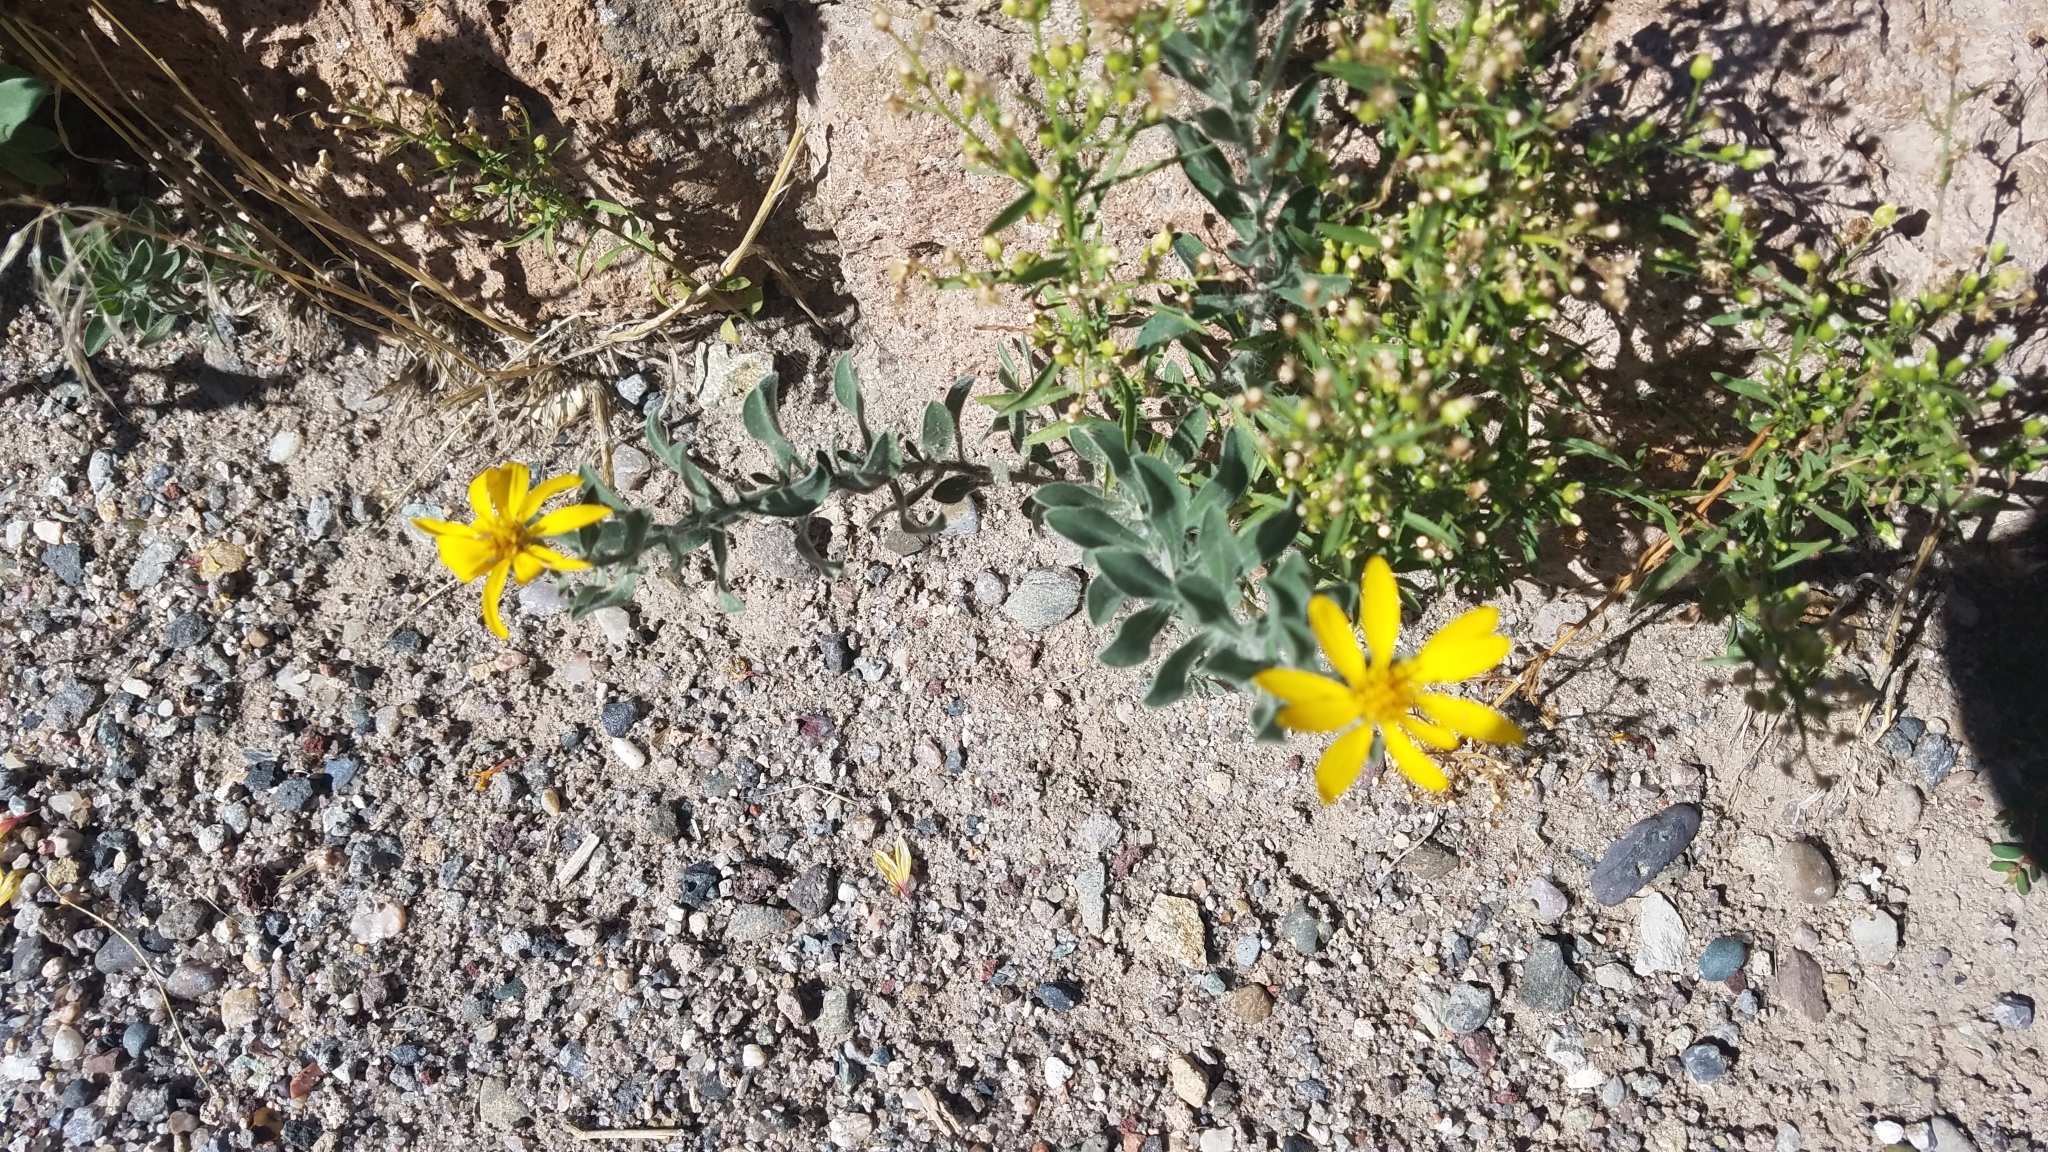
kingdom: Plantae
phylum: Tracheophyta
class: Magnoliopsida
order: Asterales
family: Asteraceae
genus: Heterotheca
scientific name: Heterotheca zionensis
